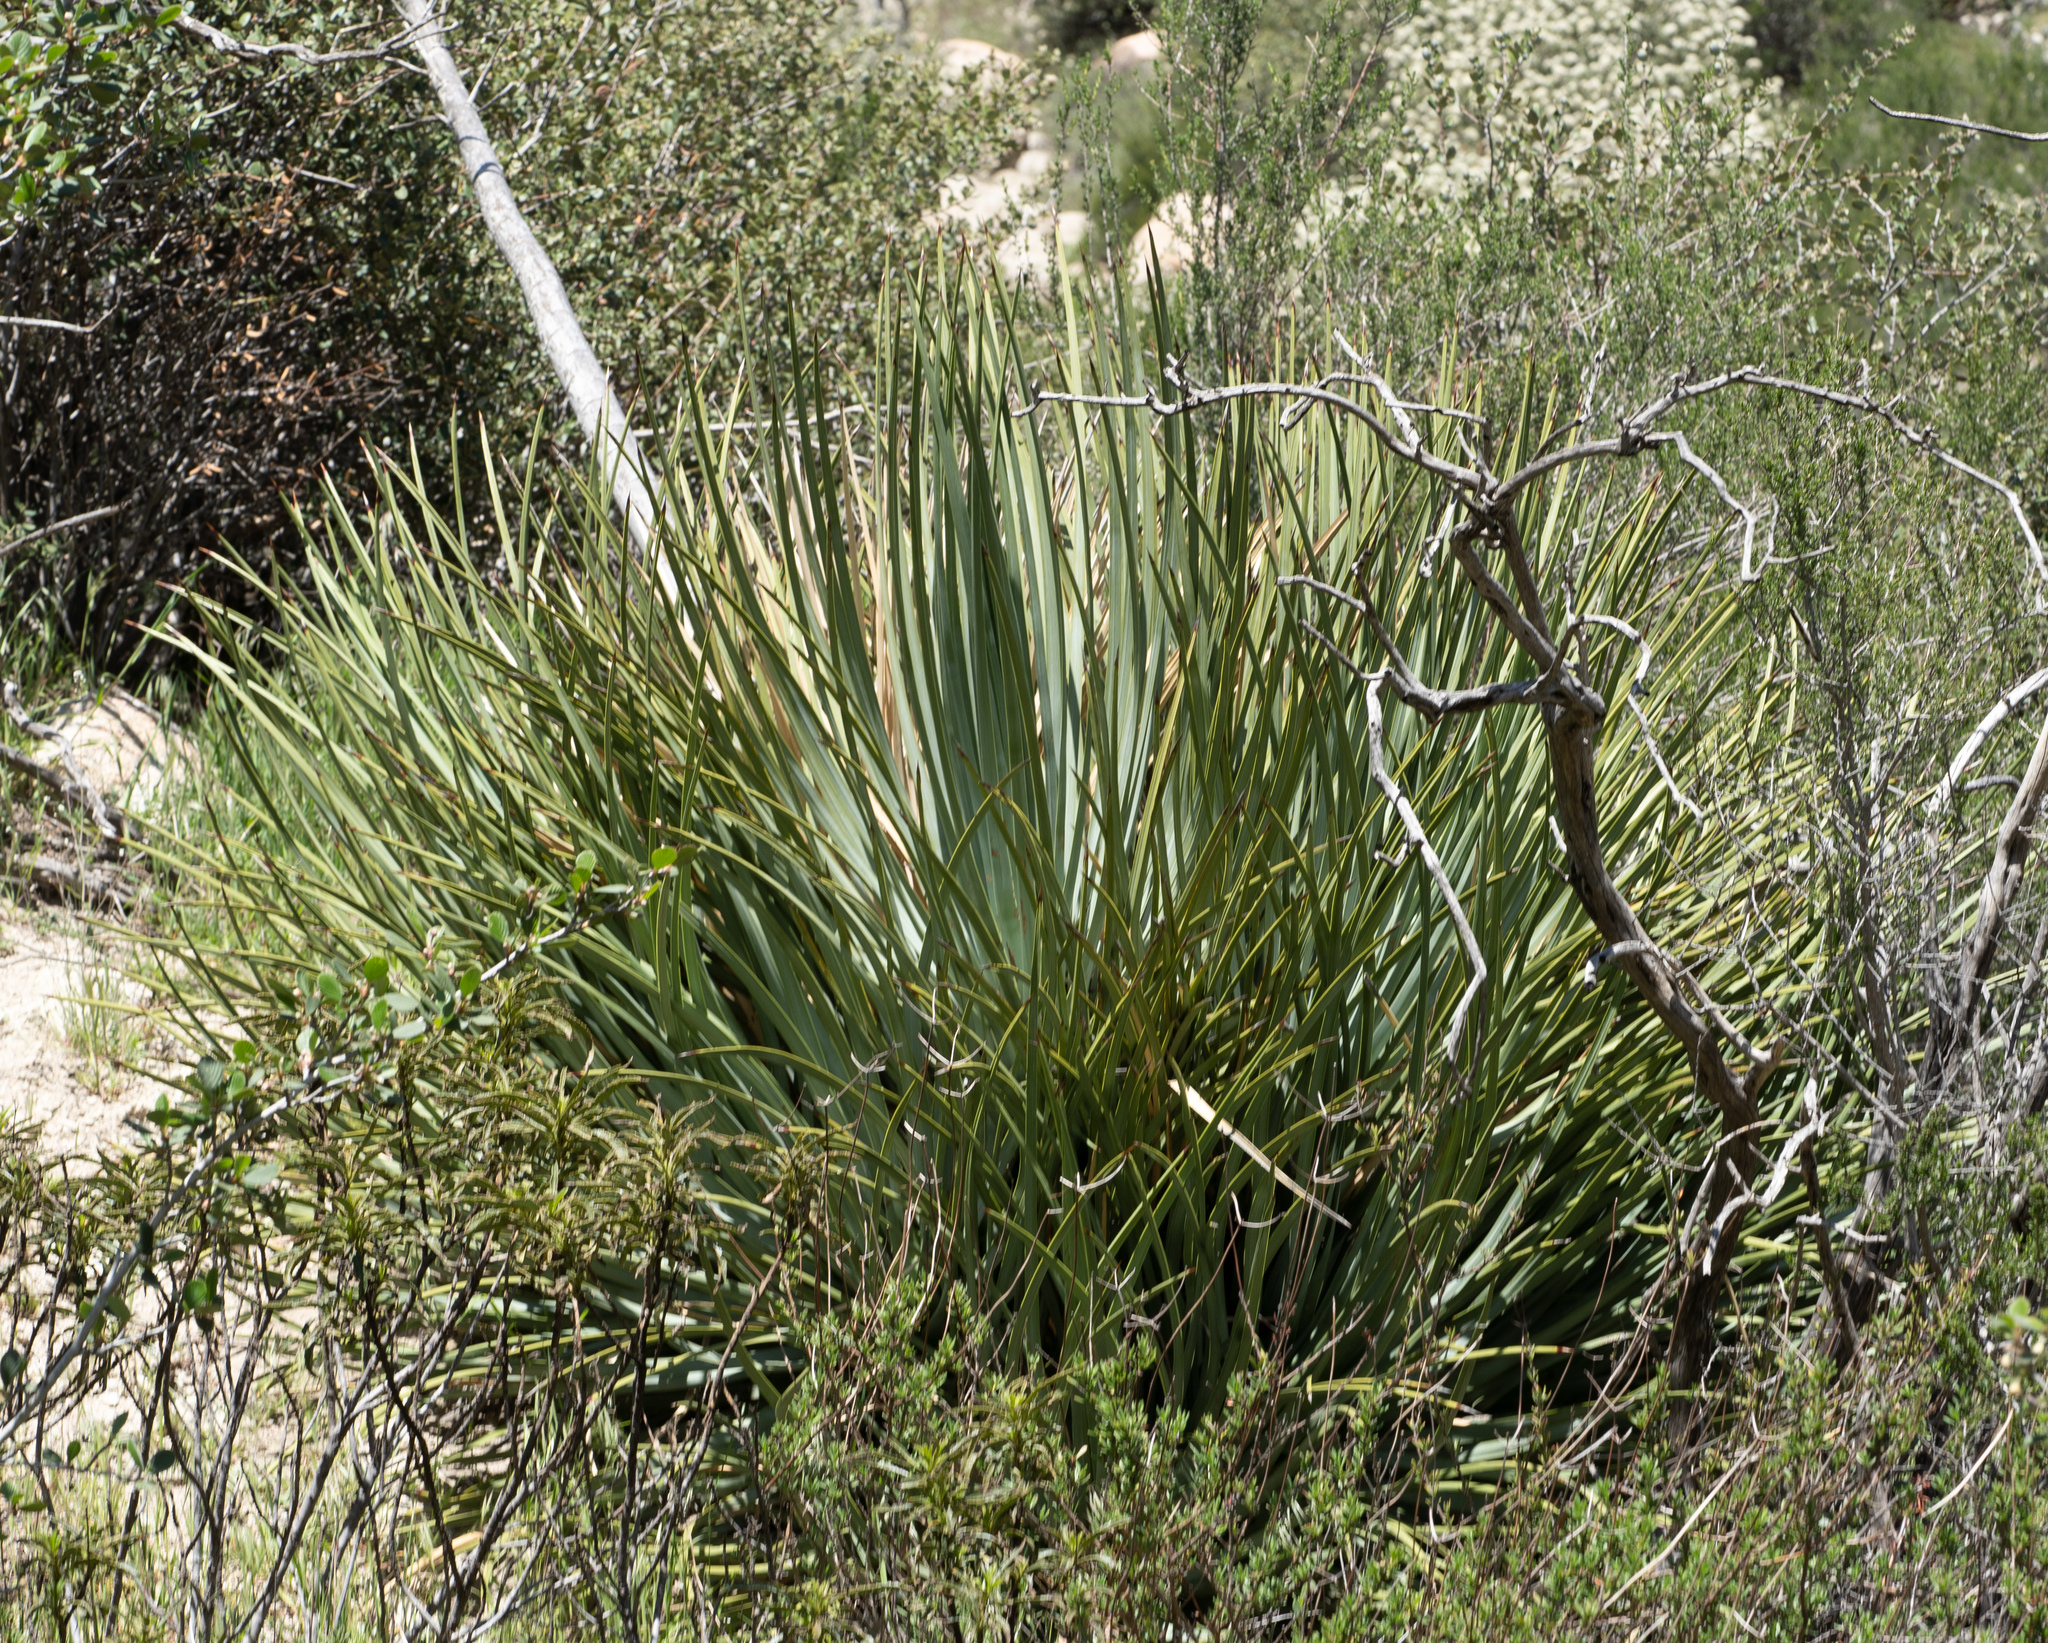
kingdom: Plantae
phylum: Tracheophyta
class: Liliopsida
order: Asparagales
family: Asparagaceae
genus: Hesperoyucca
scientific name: Hesperoyucca whipplei
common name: Our lord's-candle
